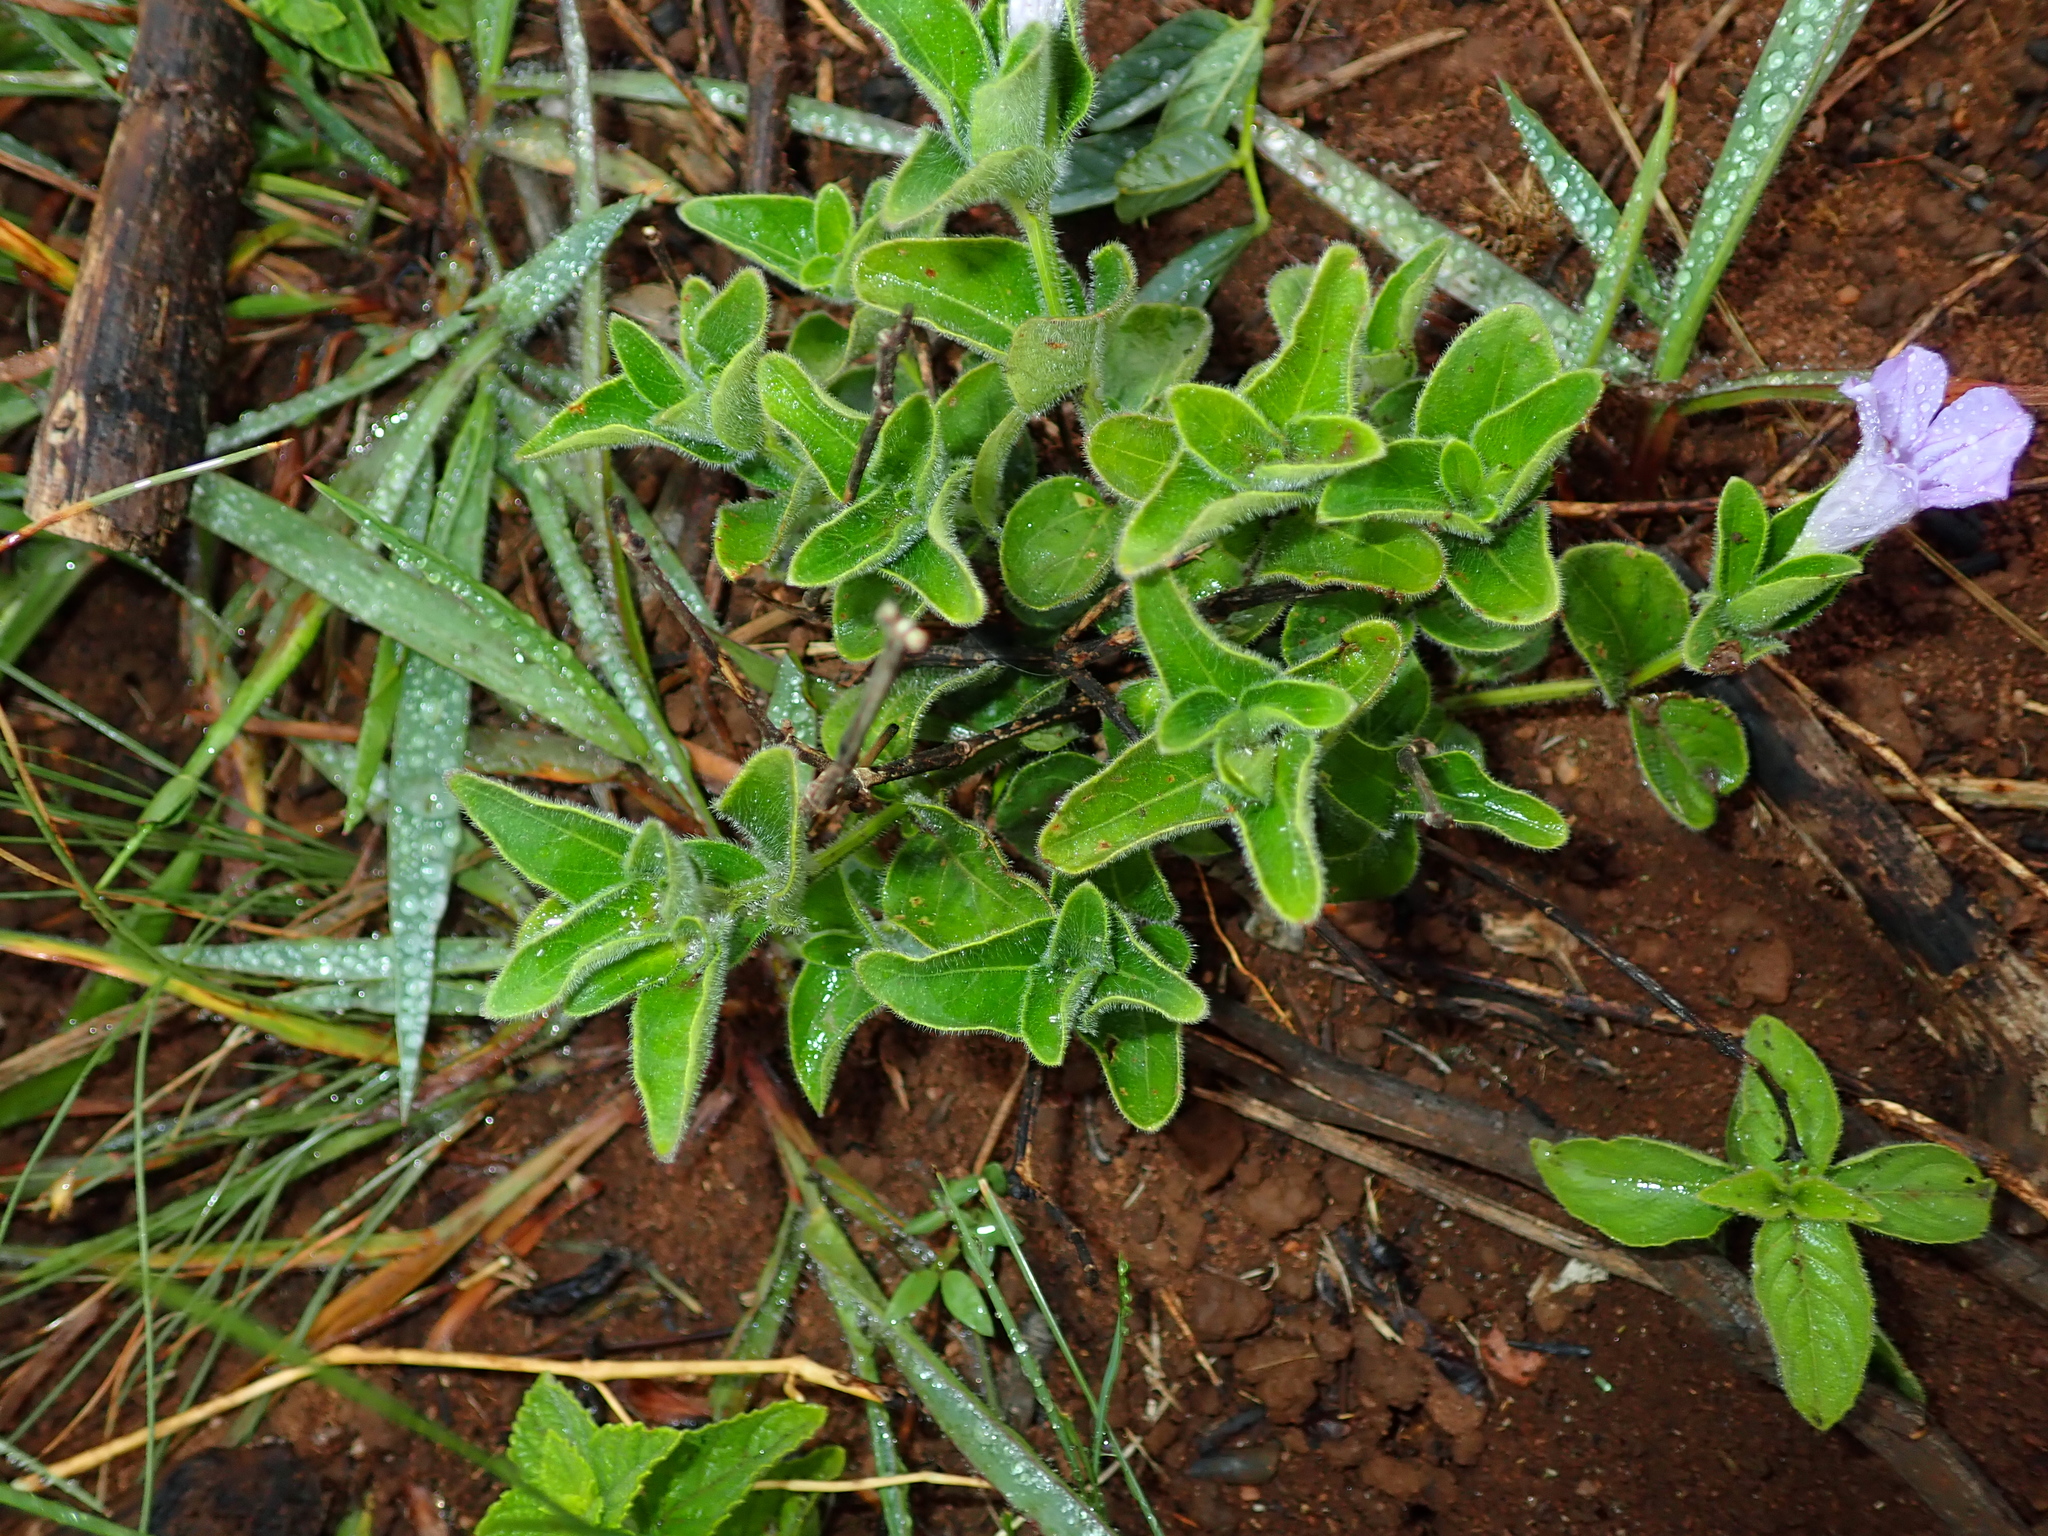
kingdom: Plantae
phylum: Tracheophyta
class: Magnoliopsida
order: Lamiales
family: Acanthaceae
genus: Ruellia
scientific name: Ruellia cordata
